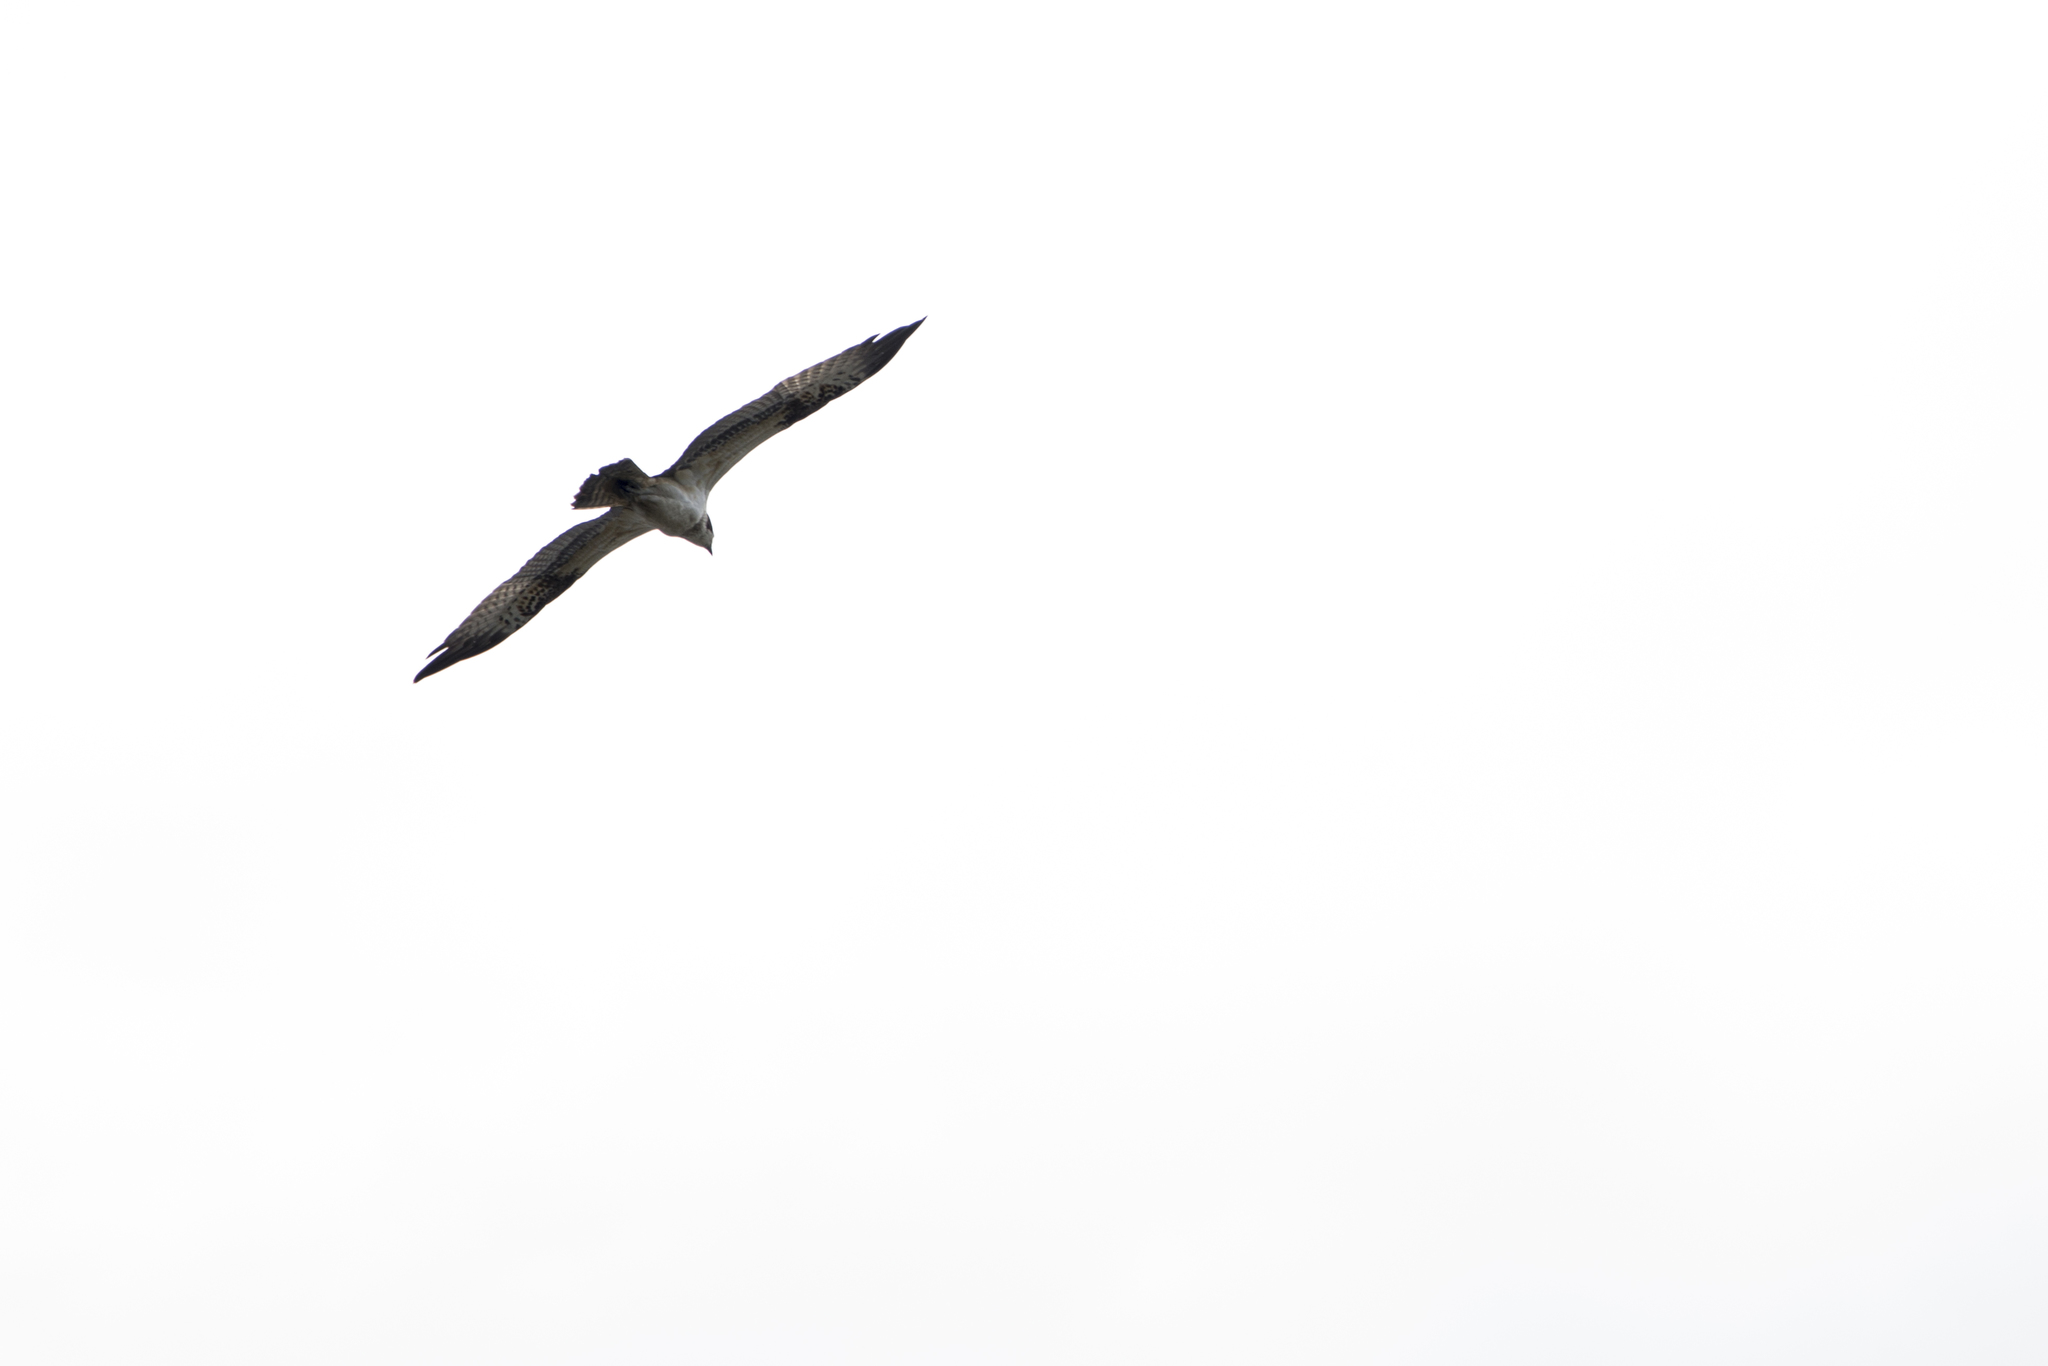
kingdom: Animalia
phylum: Chordata
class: Aves
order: Accipitriformes
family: Pandionidae
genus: Pandion
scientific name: Pandion haliaetus
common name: Osprey
